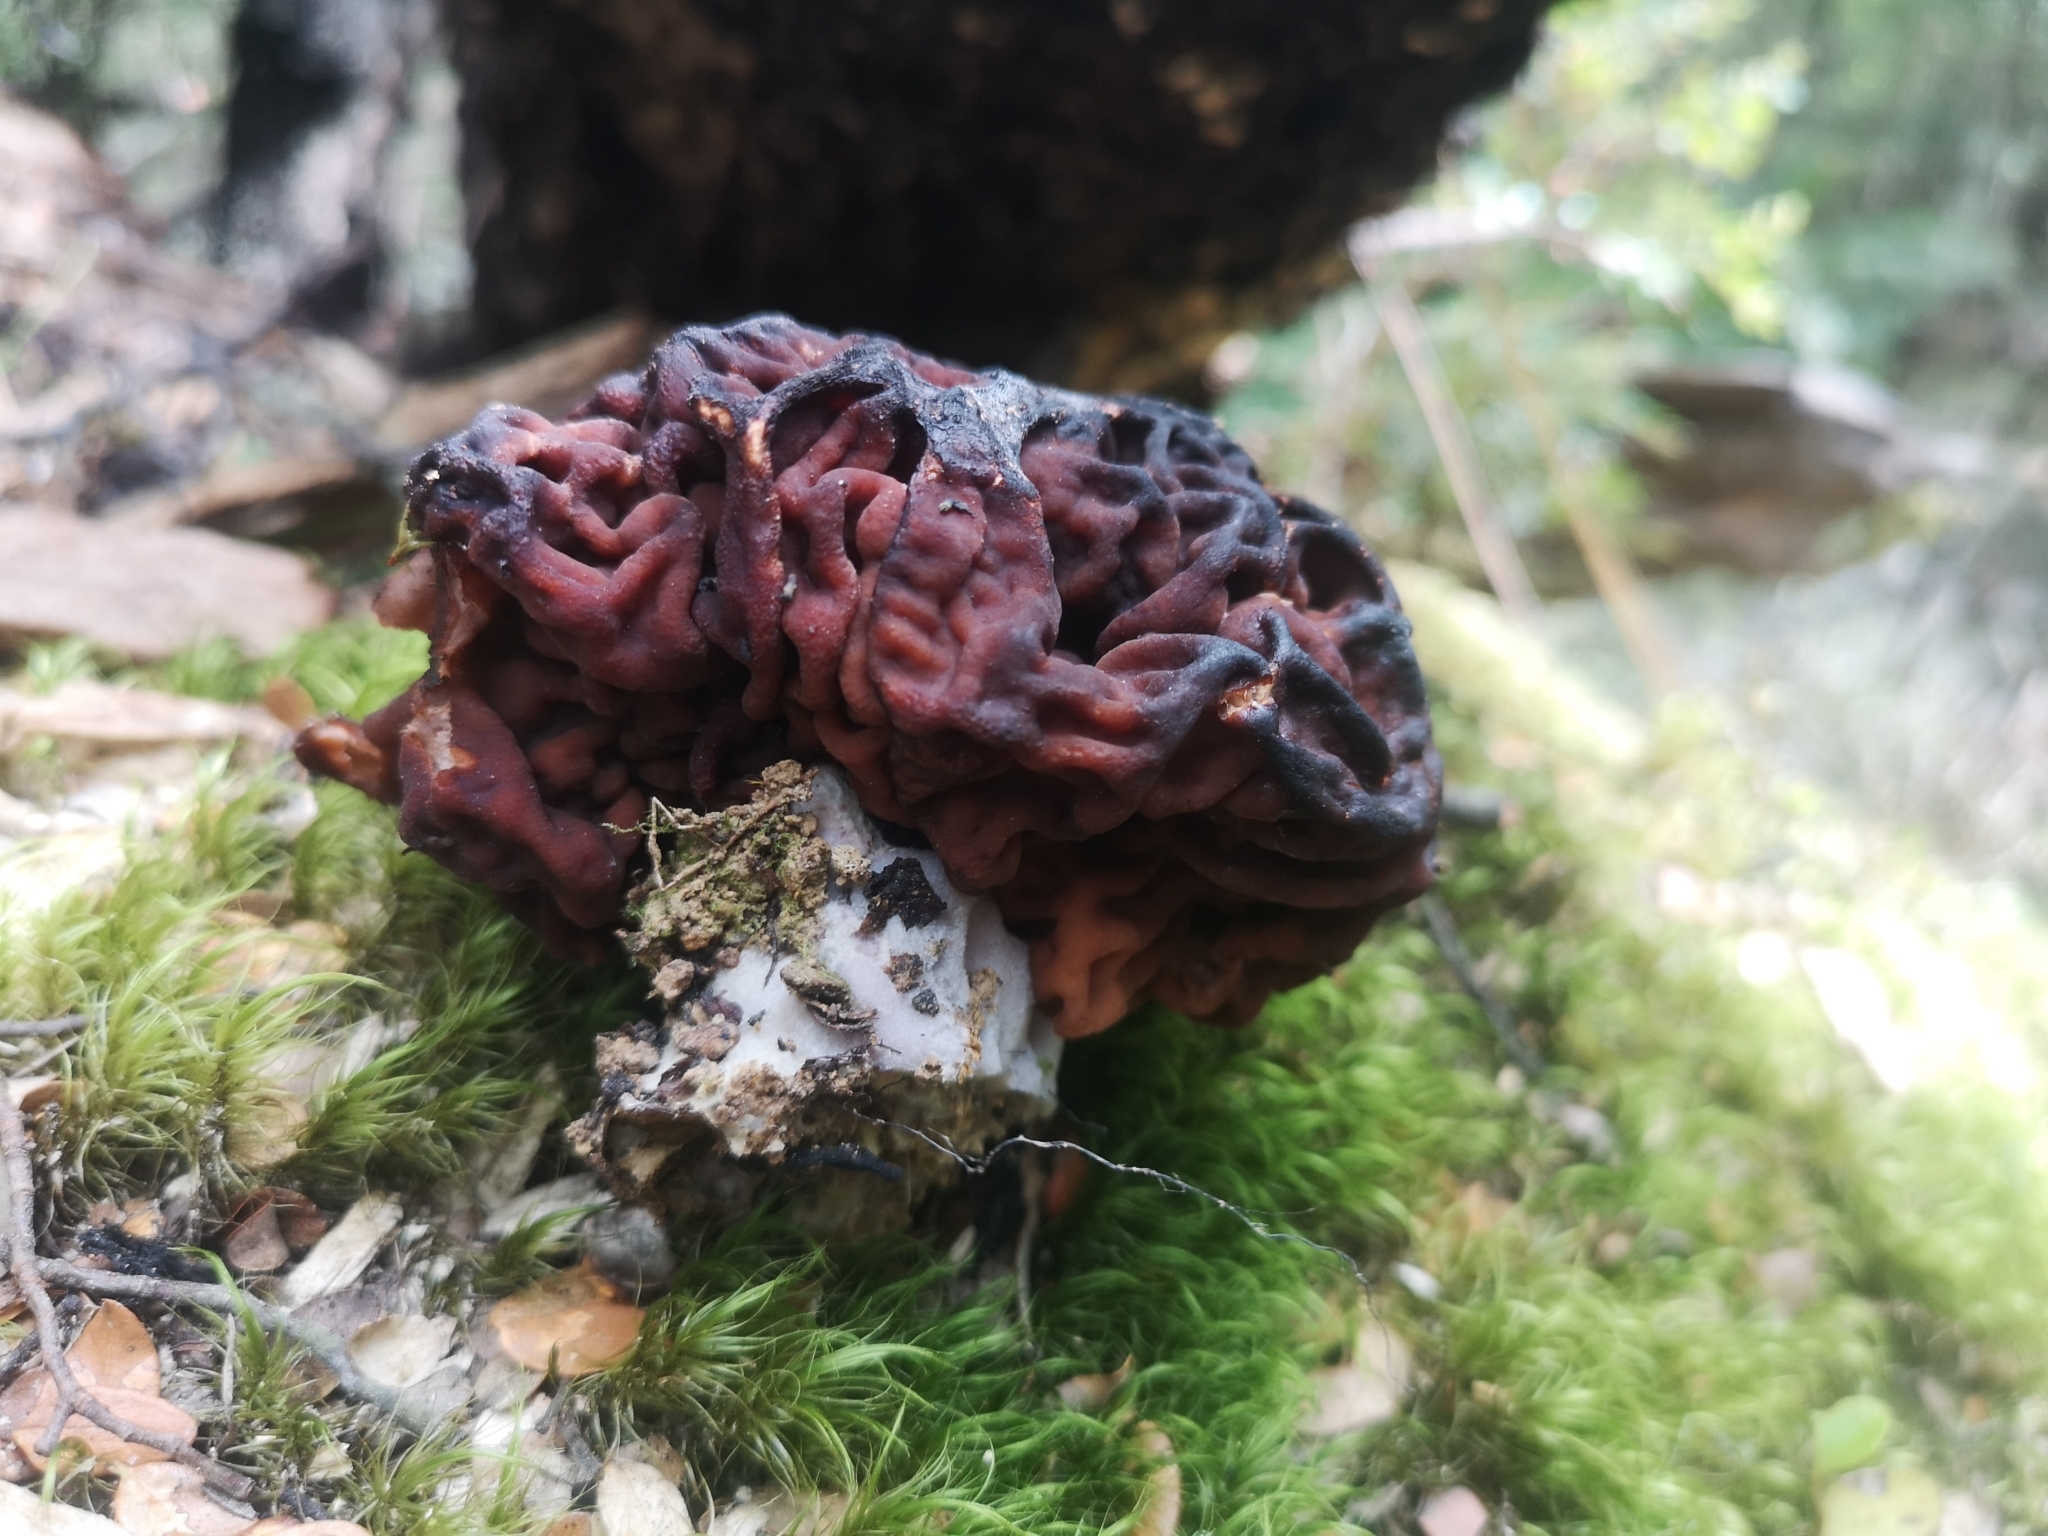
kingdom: Fungi
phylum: Ascomycota
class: Pezizomycetes
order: Pezizales
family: Discinaceae
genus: Gyromitra
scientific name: Gyromitra tasmanica
